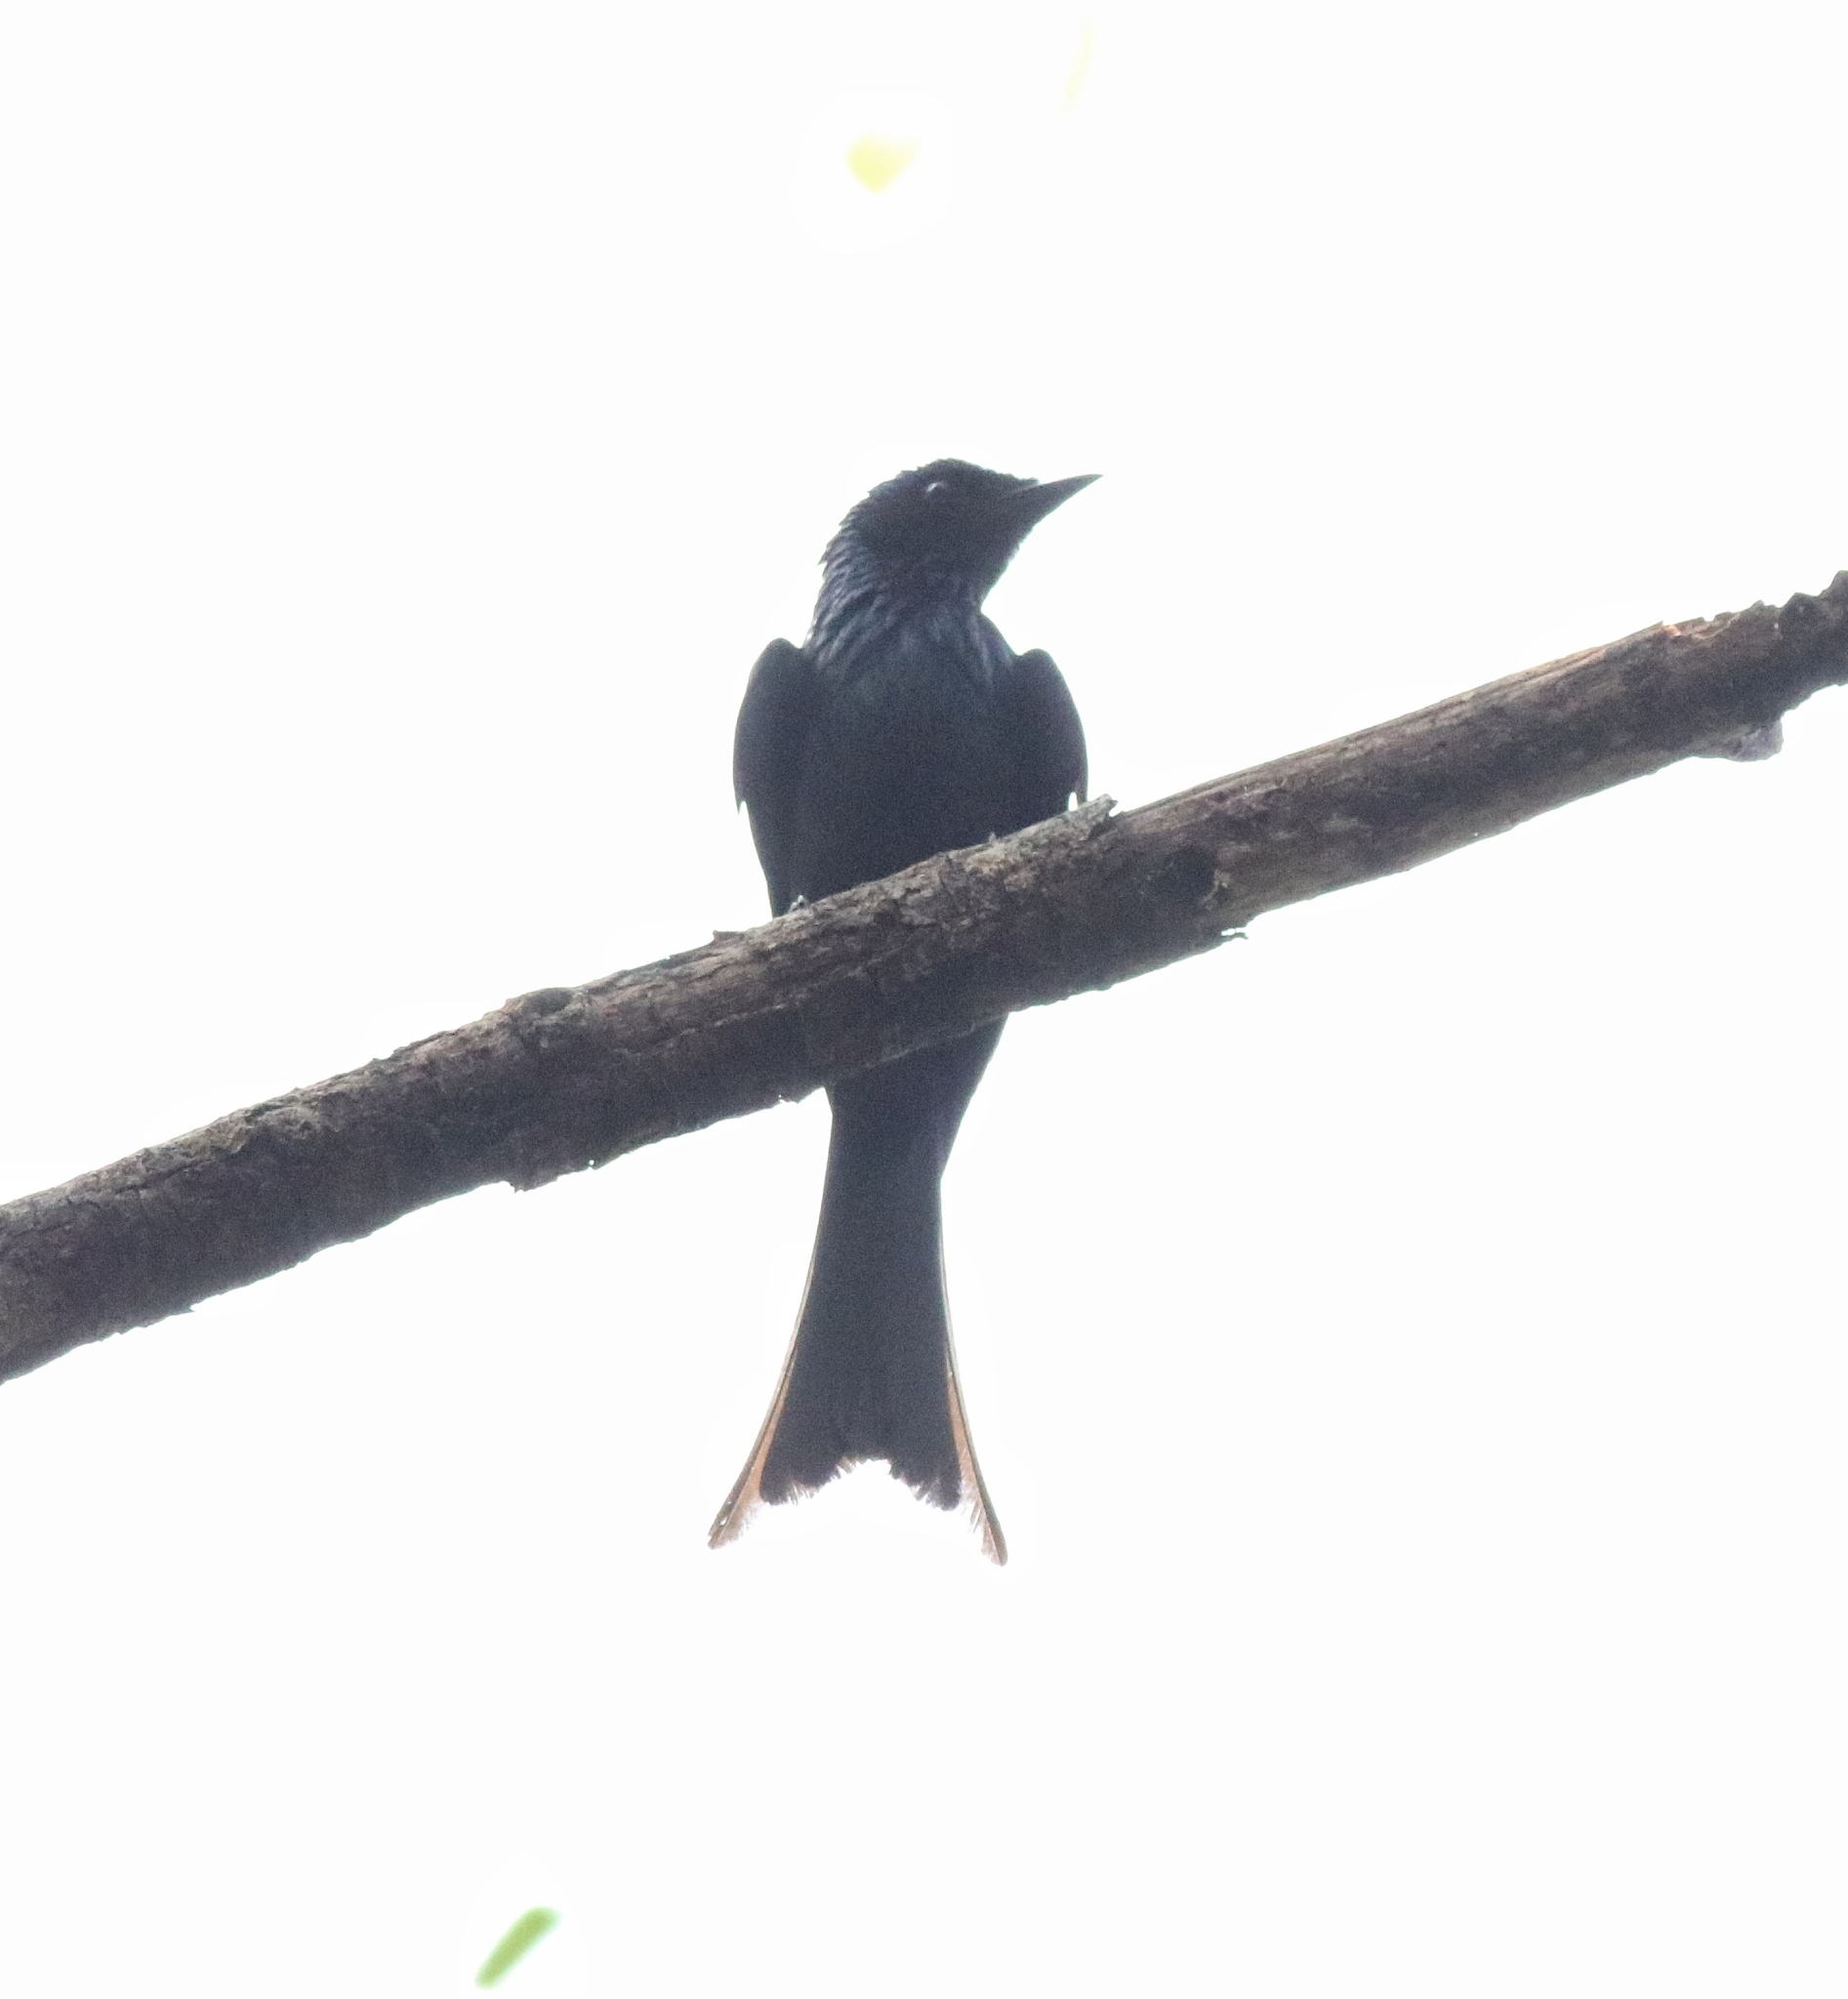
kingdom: Animalia
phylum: Chordata
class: Aves
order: Passeriformes
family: Dicruridae
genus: Dicrurus
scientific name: Dicrurus aeneus
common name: Bronzed drongo
